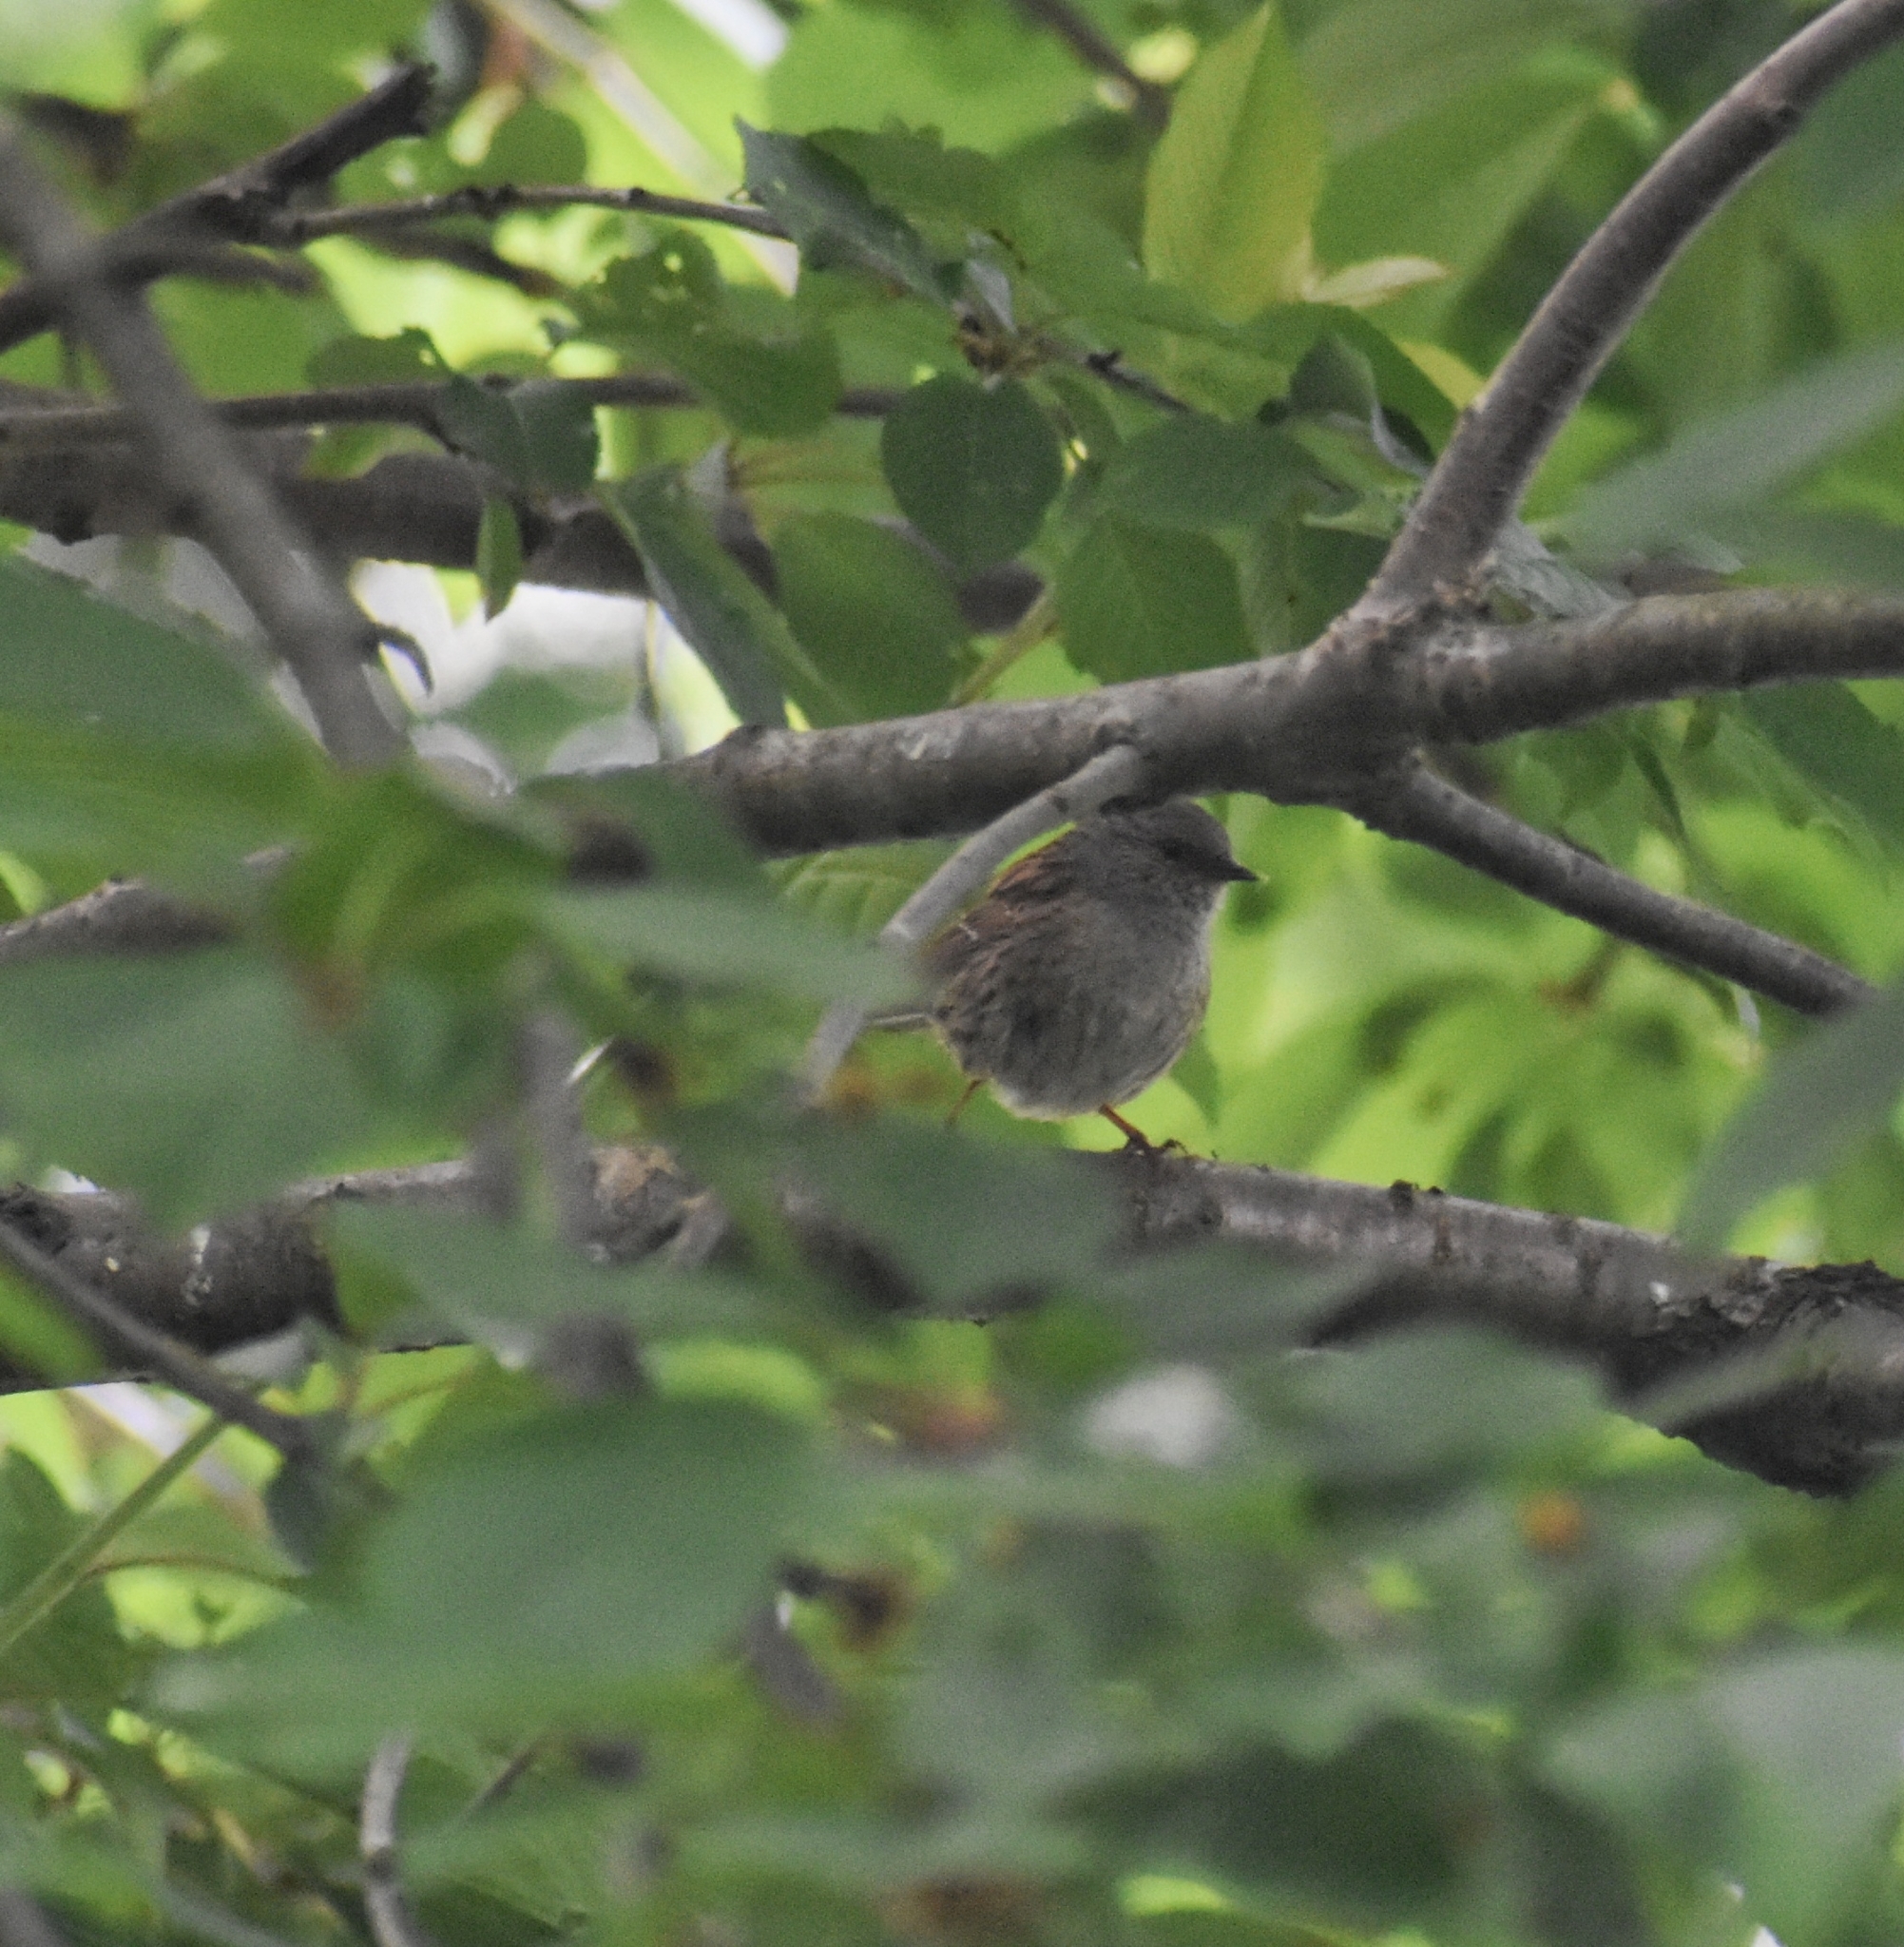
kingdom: Animalia
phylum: Chordata
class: Aves
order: Passeriformes
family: Prunellidae
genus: Prunella
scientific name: Prunella modularis
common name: Dunnock
